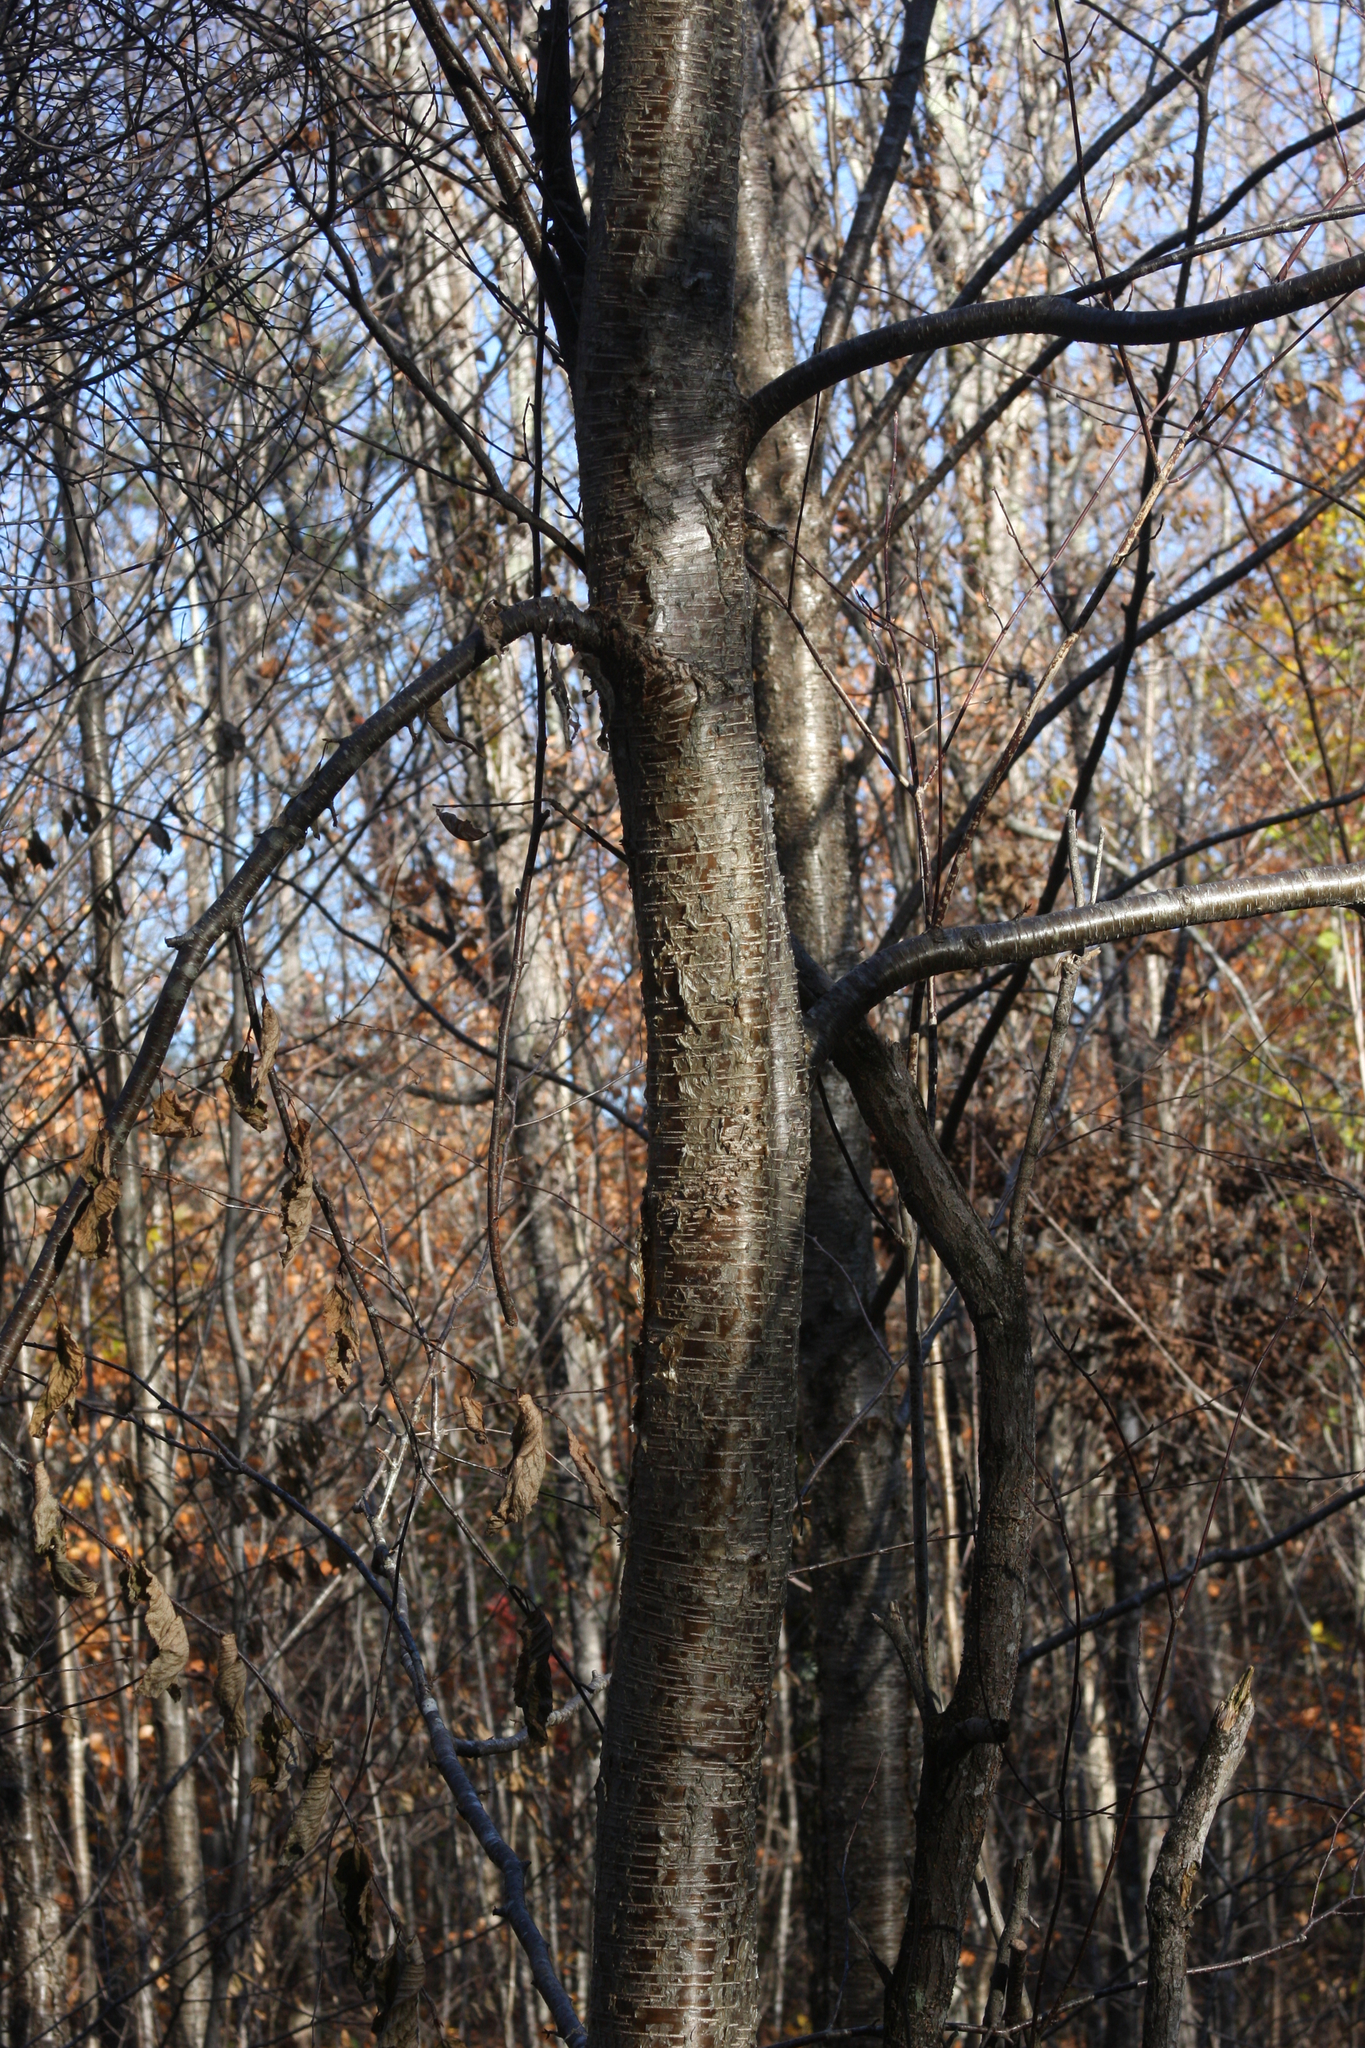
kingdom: Plantae
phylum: Tracheophyta
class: Magnoliopsida
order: Fagales
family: Betulaceae
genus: Betula
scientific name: Betula alleghaniensis
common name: Yellow birch
